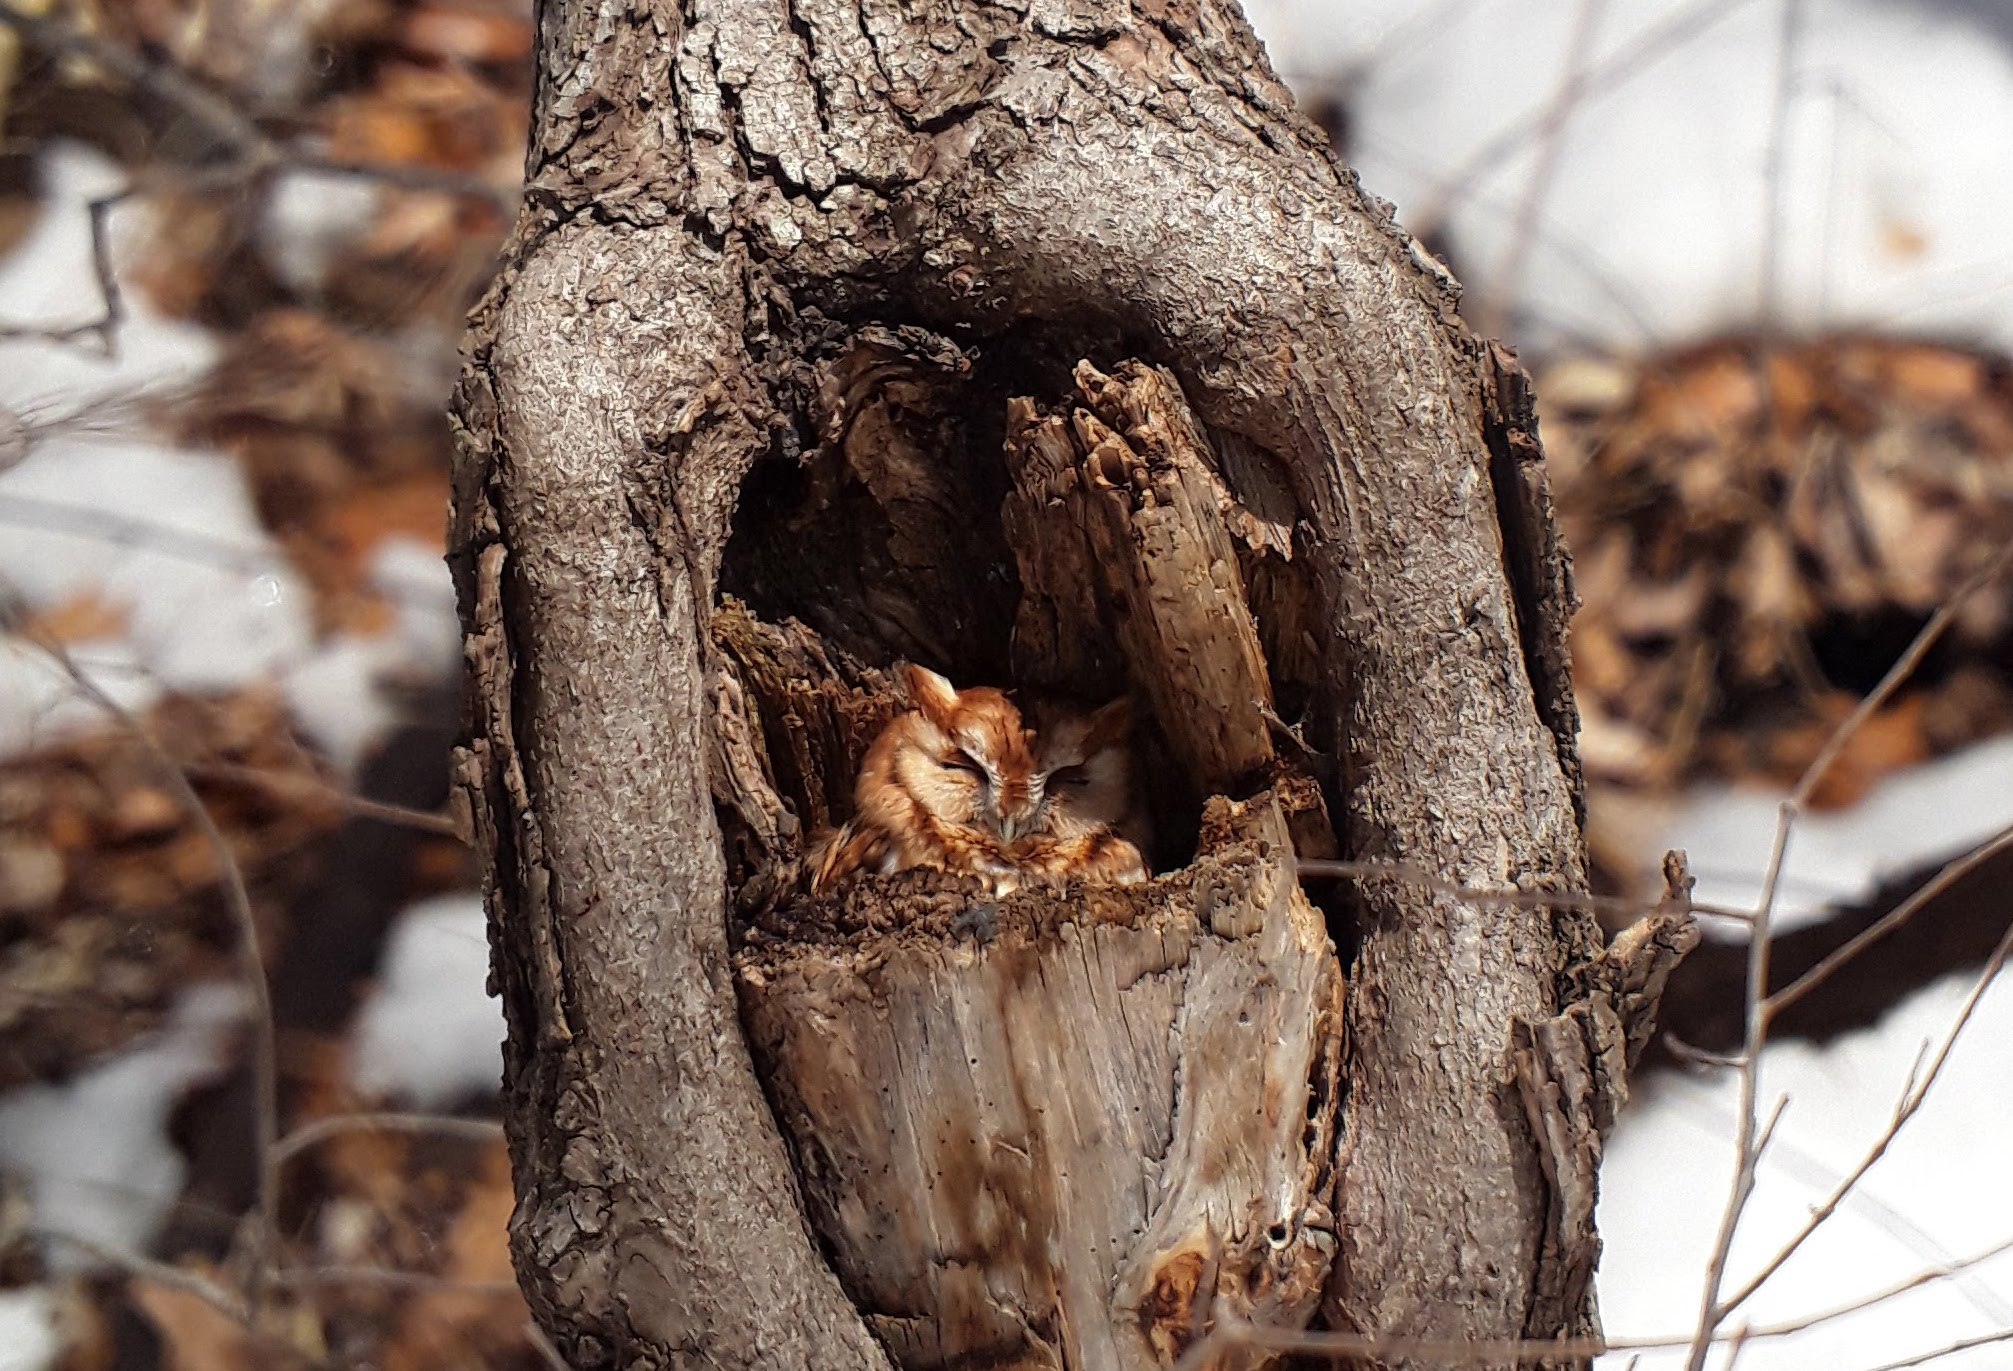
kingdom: Animalia
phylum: Chordata
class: Aves
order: Strigiformes
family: Strigidae
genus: Megascops
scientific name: Megascops asio
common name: Eastern screech-owl
